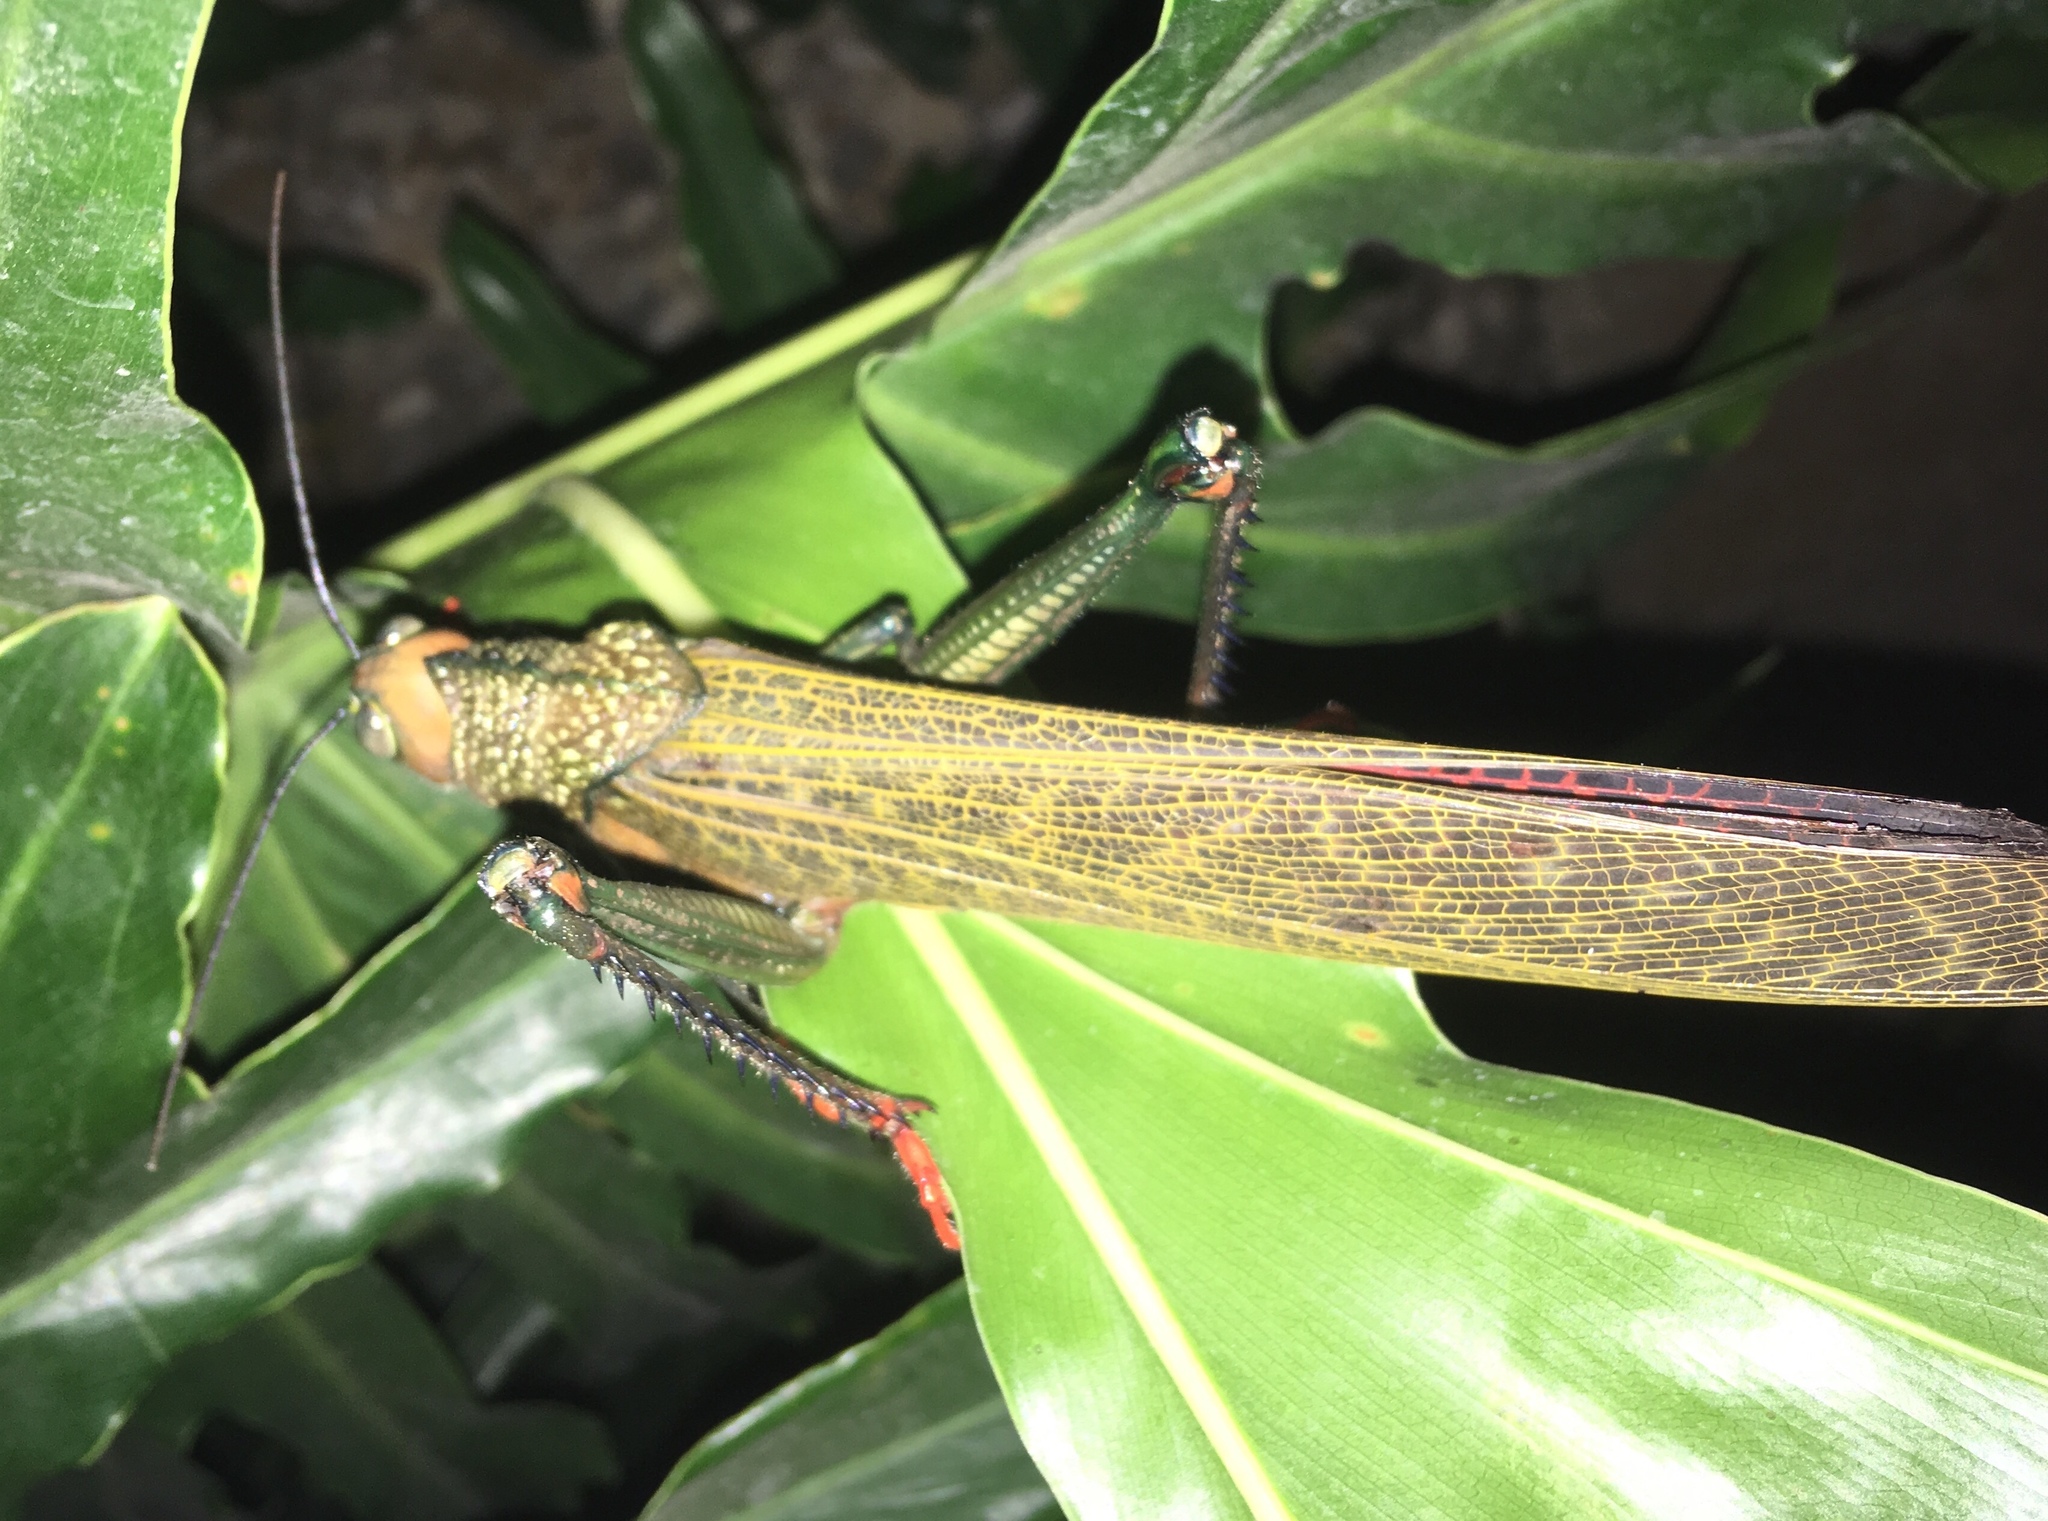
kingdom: Animalia
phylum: Arthropoda
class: Insecta
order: Orthoptera
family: Romaleidae
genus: Tropidacris
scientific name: Tropidacris cristata
